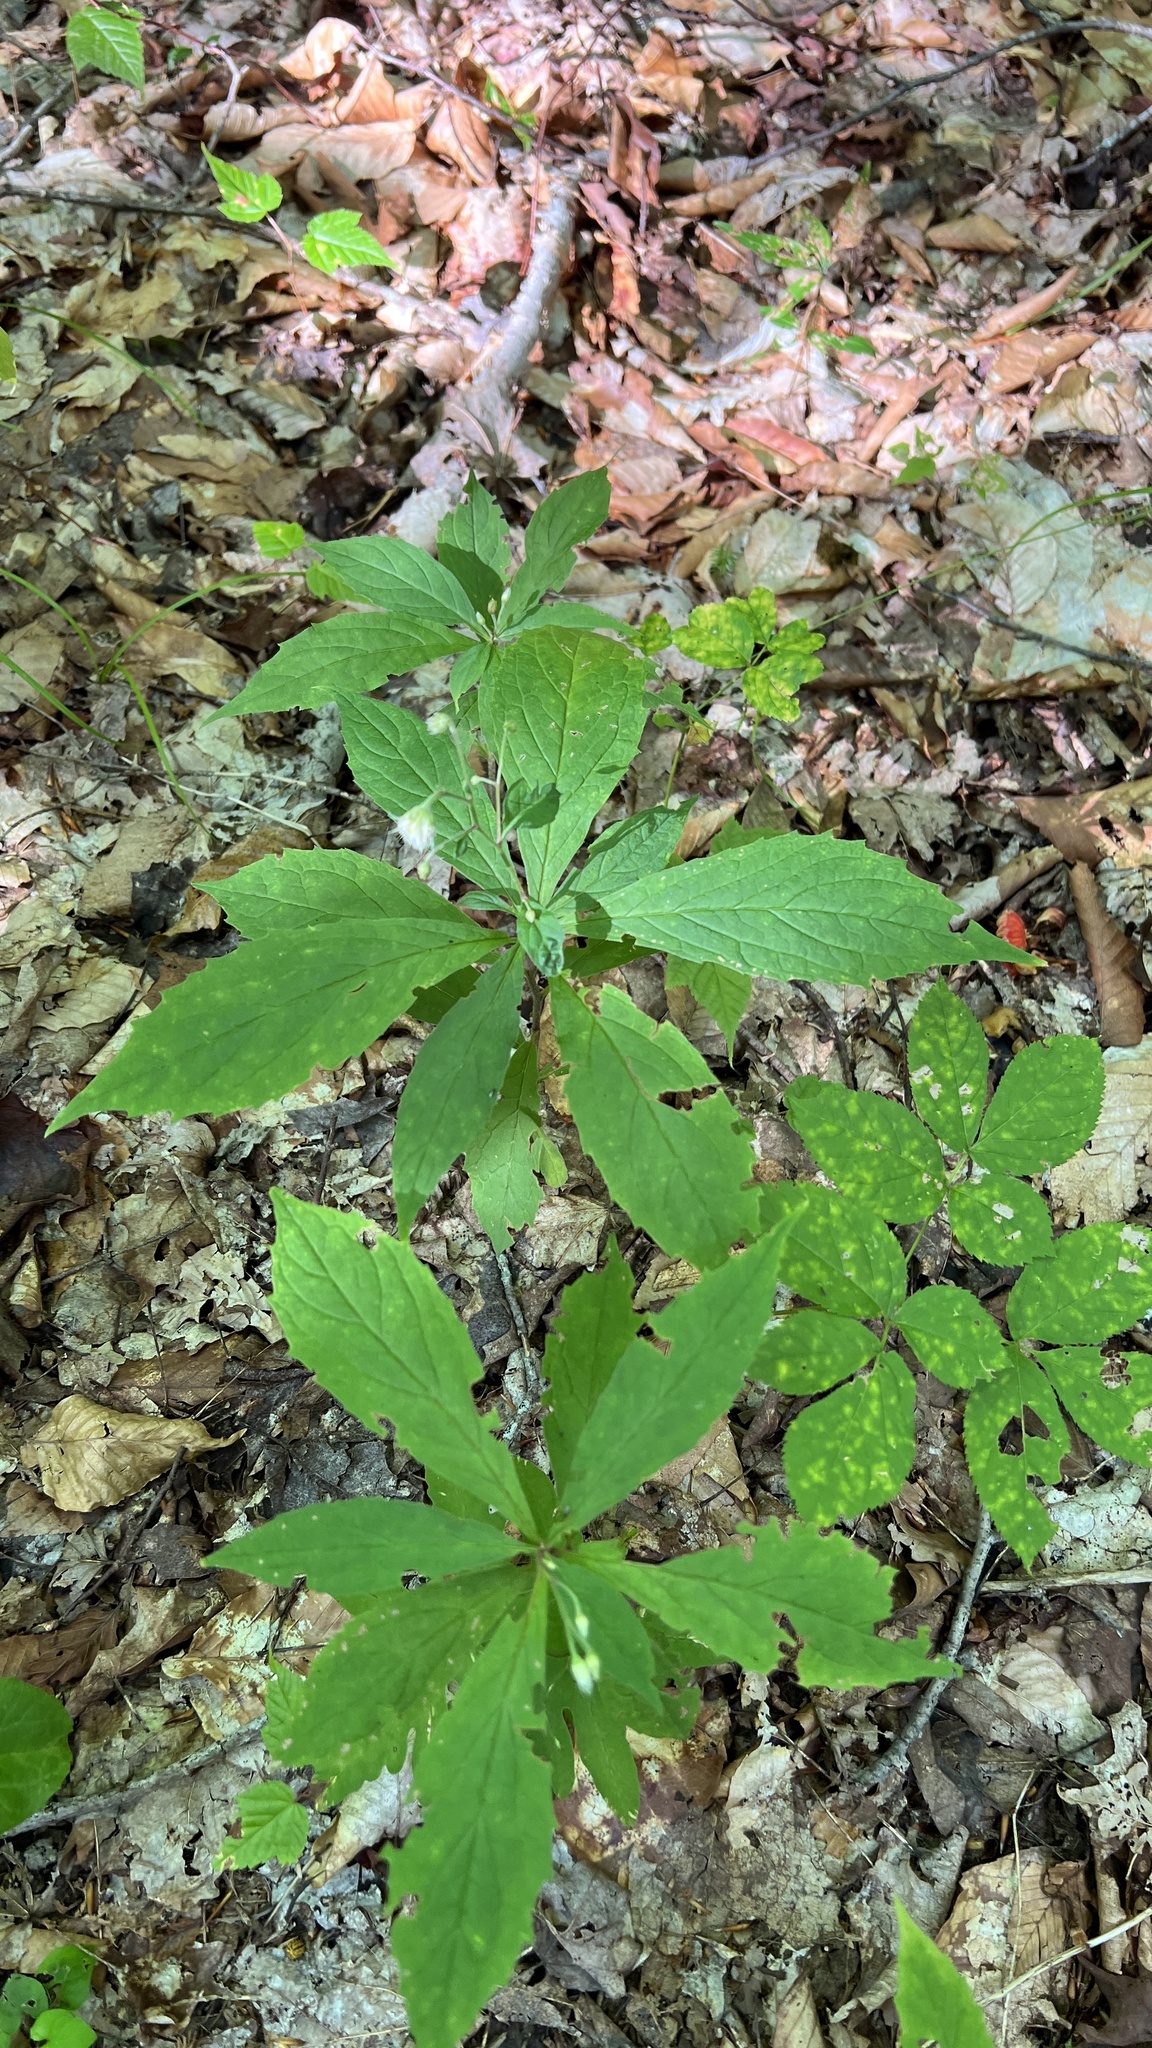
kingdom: Plantae
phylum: Tracheophyta
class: Magnoliopsida
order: Asterales
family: Asteraceae
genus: Oclemena
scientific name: Oclemena acuminata
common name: Mountain aster
